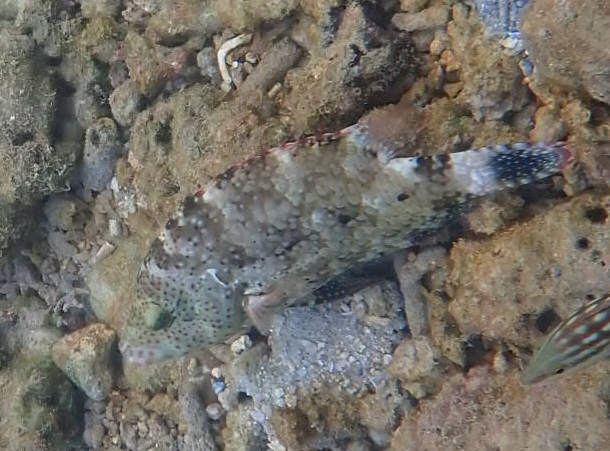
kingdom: Animalia
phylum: Chordata
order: Perciformes
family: Labridae
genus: Cheilinus
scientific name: Cheilinus chlorourus
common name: Floral wrasse
